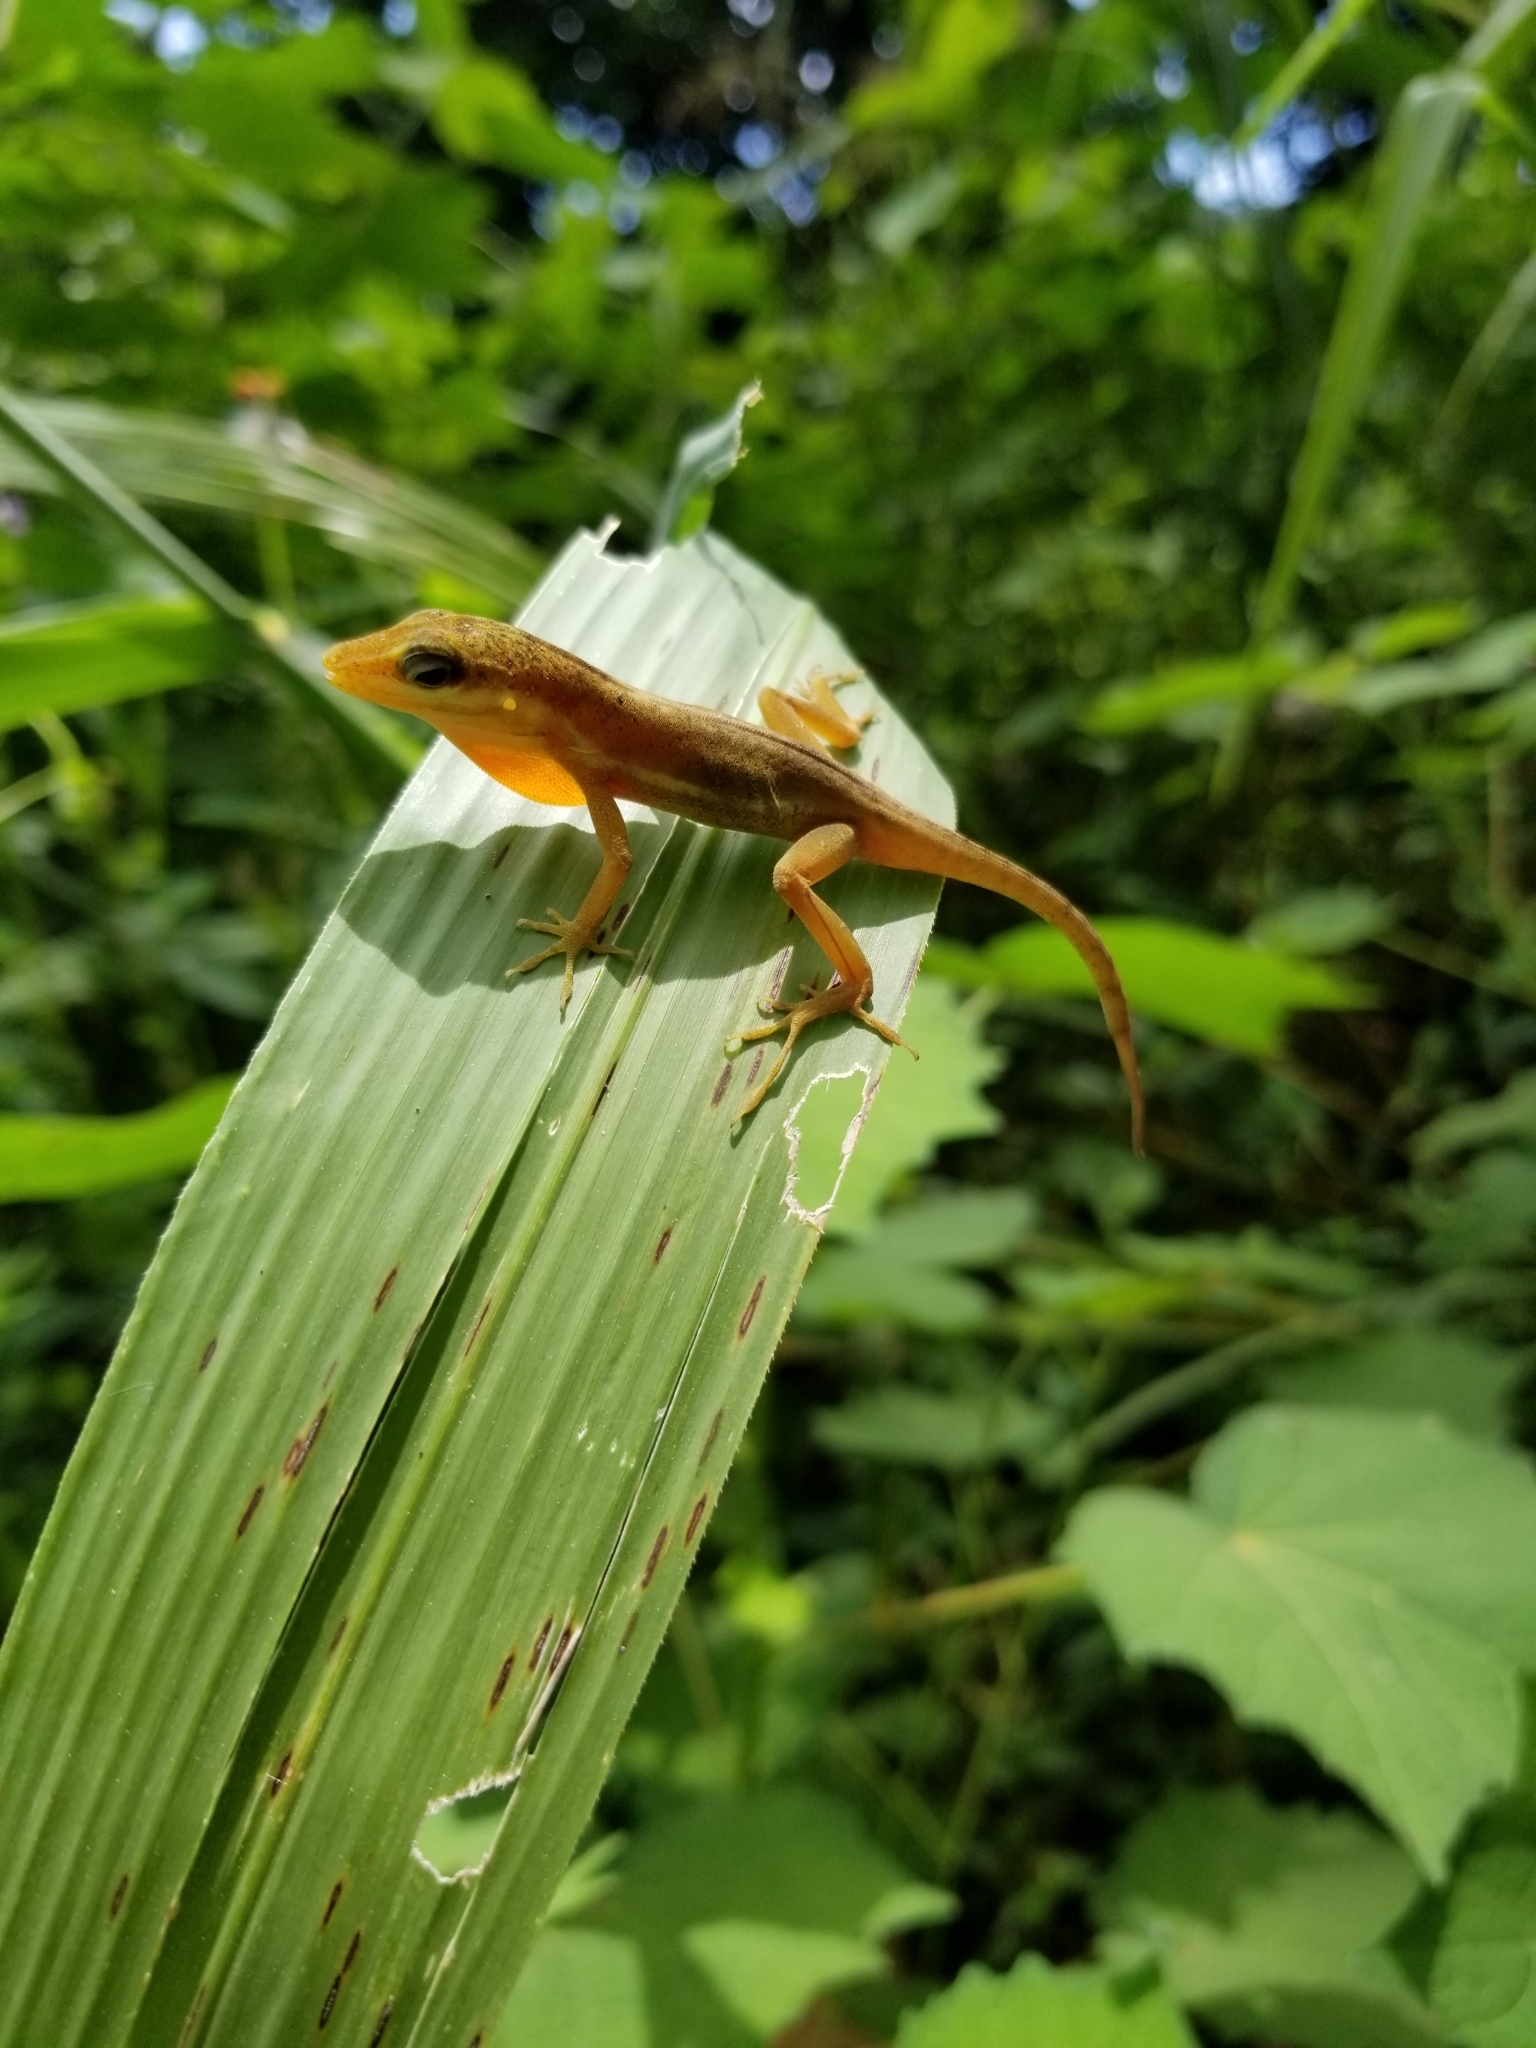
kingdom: Animalia
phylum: Chordata
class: Squamata
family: Dactyloidae
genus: Anolis
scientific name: Anolis krugi
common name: Krug's anole
